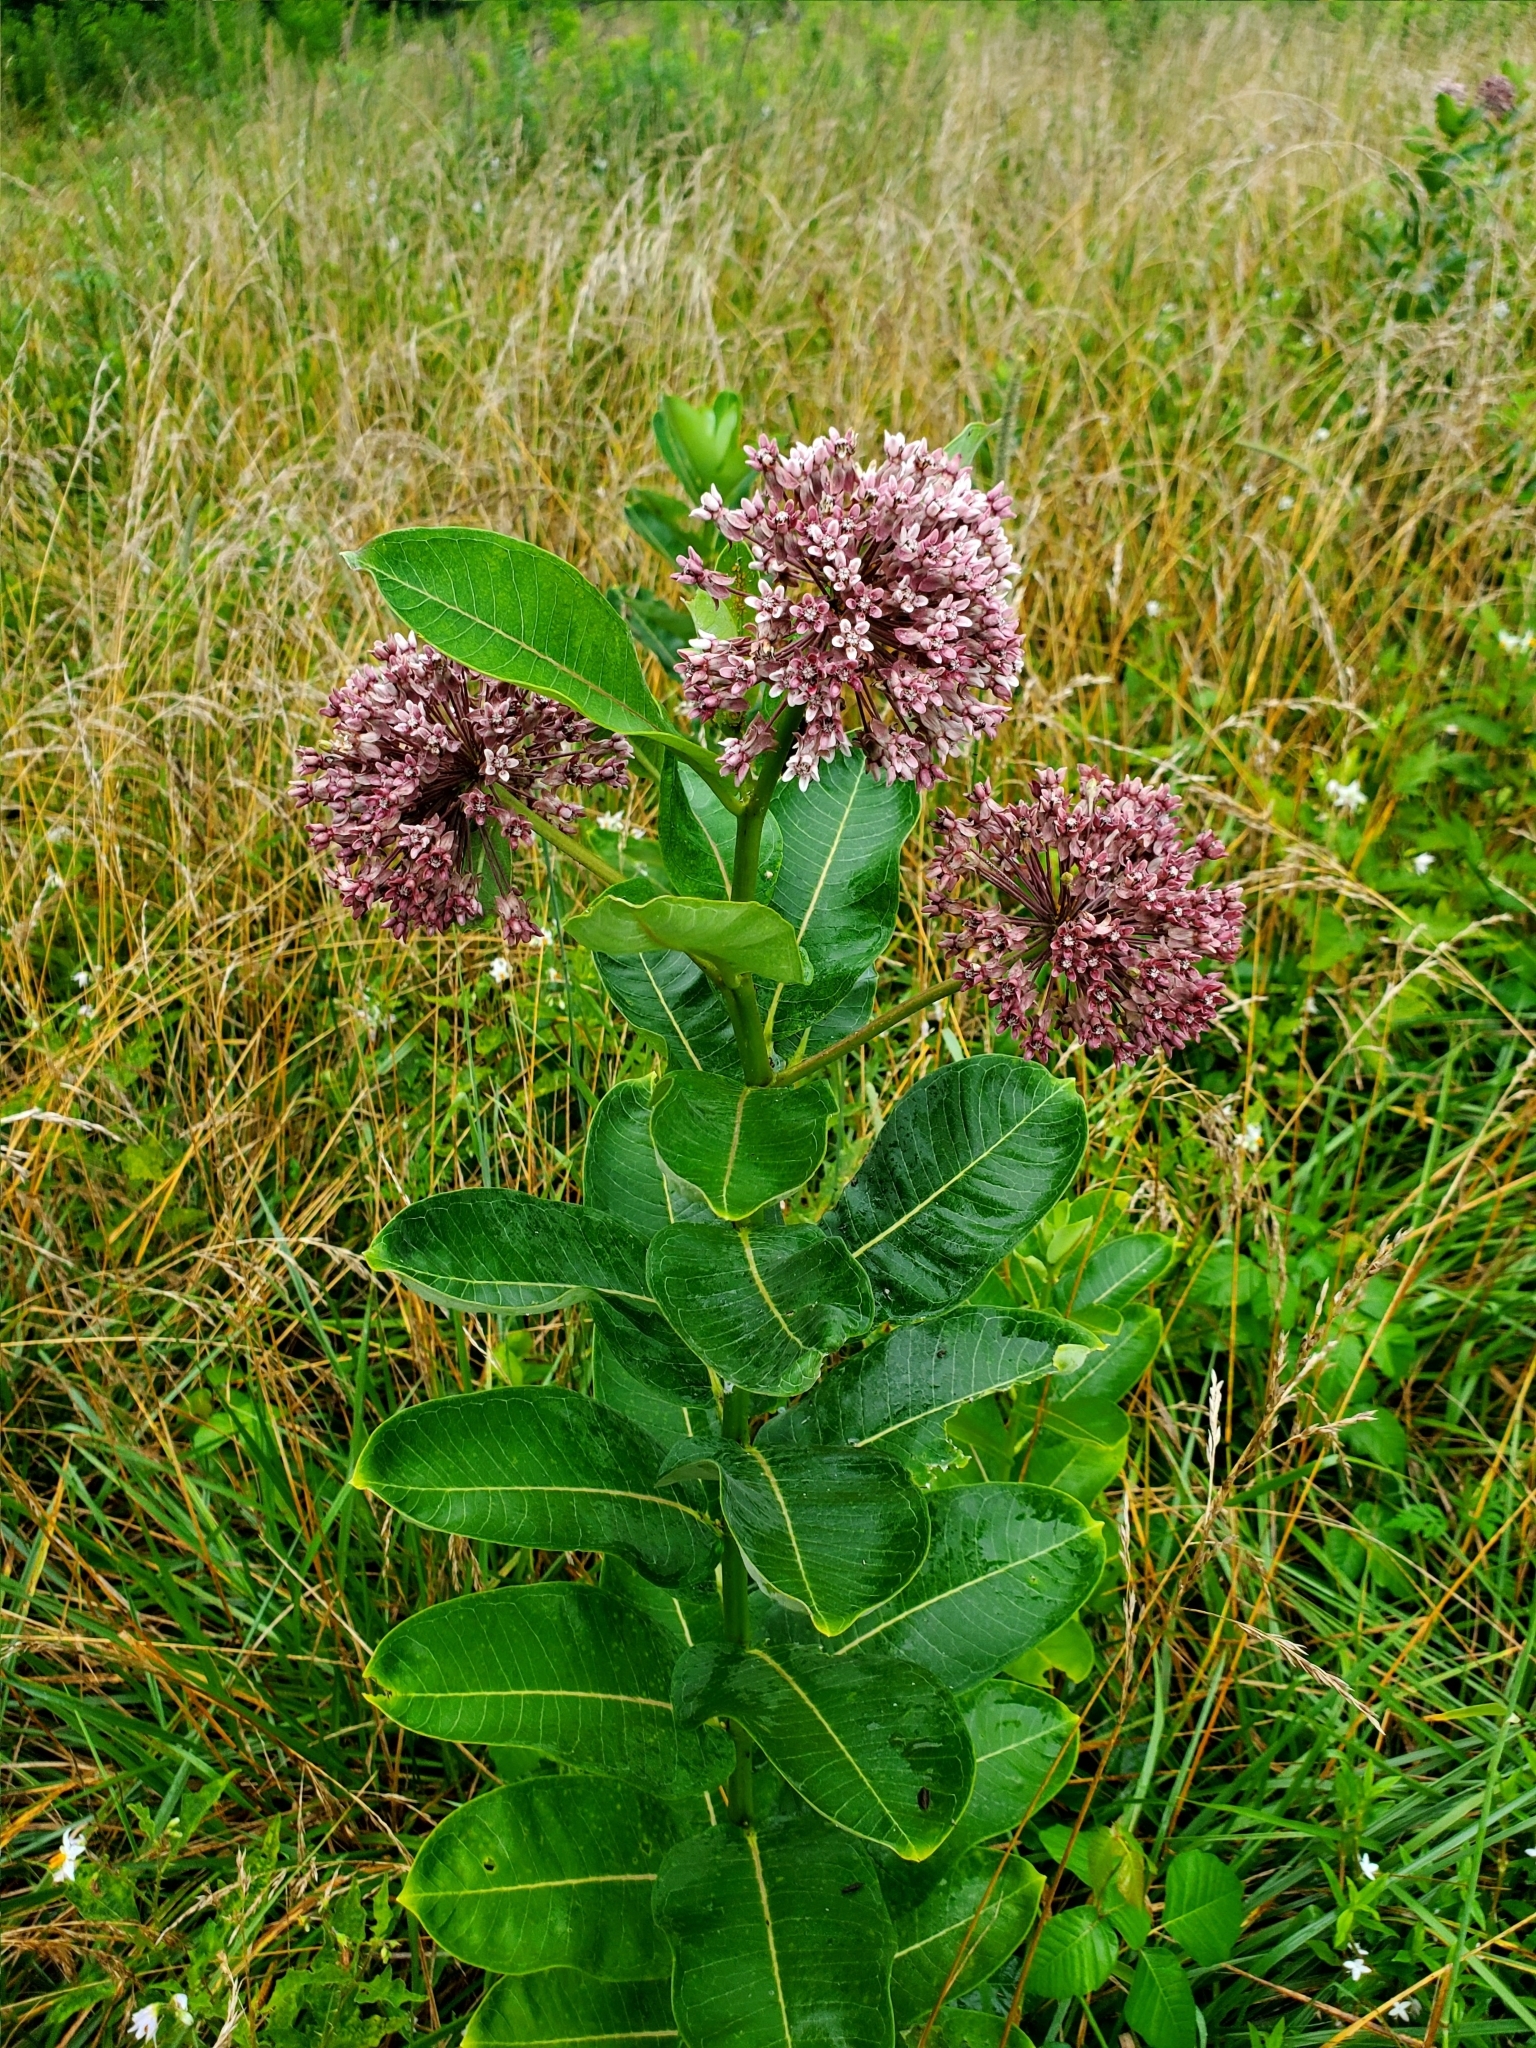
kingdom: Plantae
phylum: Tracheophyta
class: Magnoliopsida
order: Gentianales
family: Apocynaceae
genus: Asclepias
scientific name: Asclepias syriaca
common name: Common milkweed
